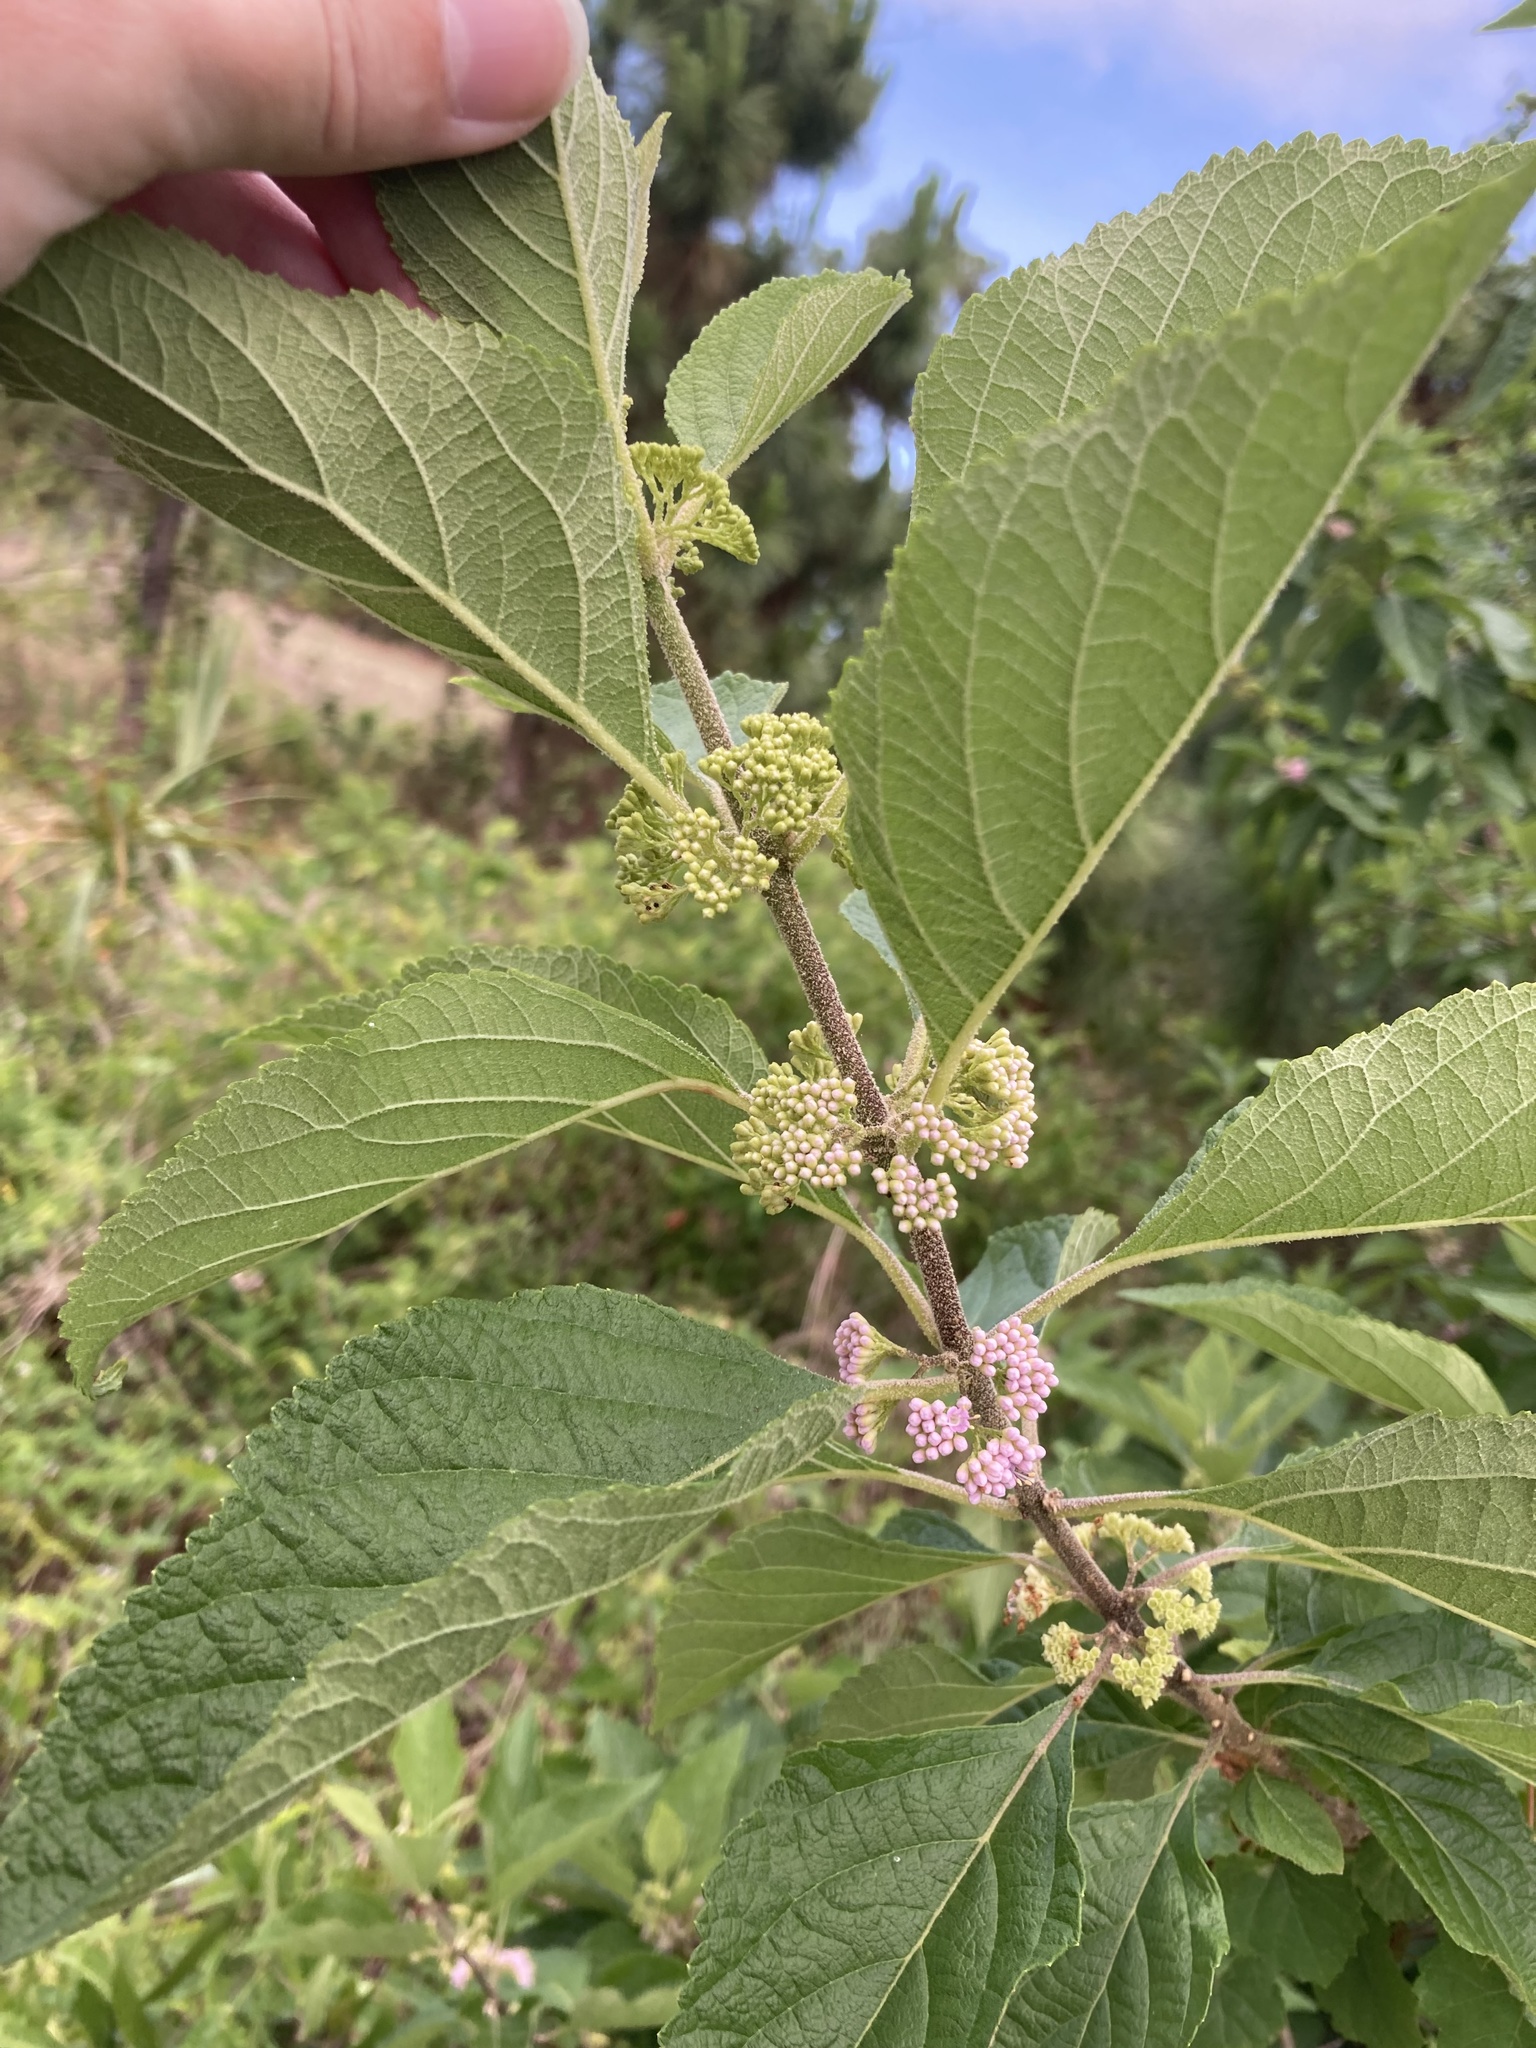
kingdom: Plantae
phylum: Tracheophyta
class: Magnoliopsida
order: Lamiales
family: Lamiaceae
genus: Callicarpa
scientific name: Callicarpa americana
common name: American beautyberry
